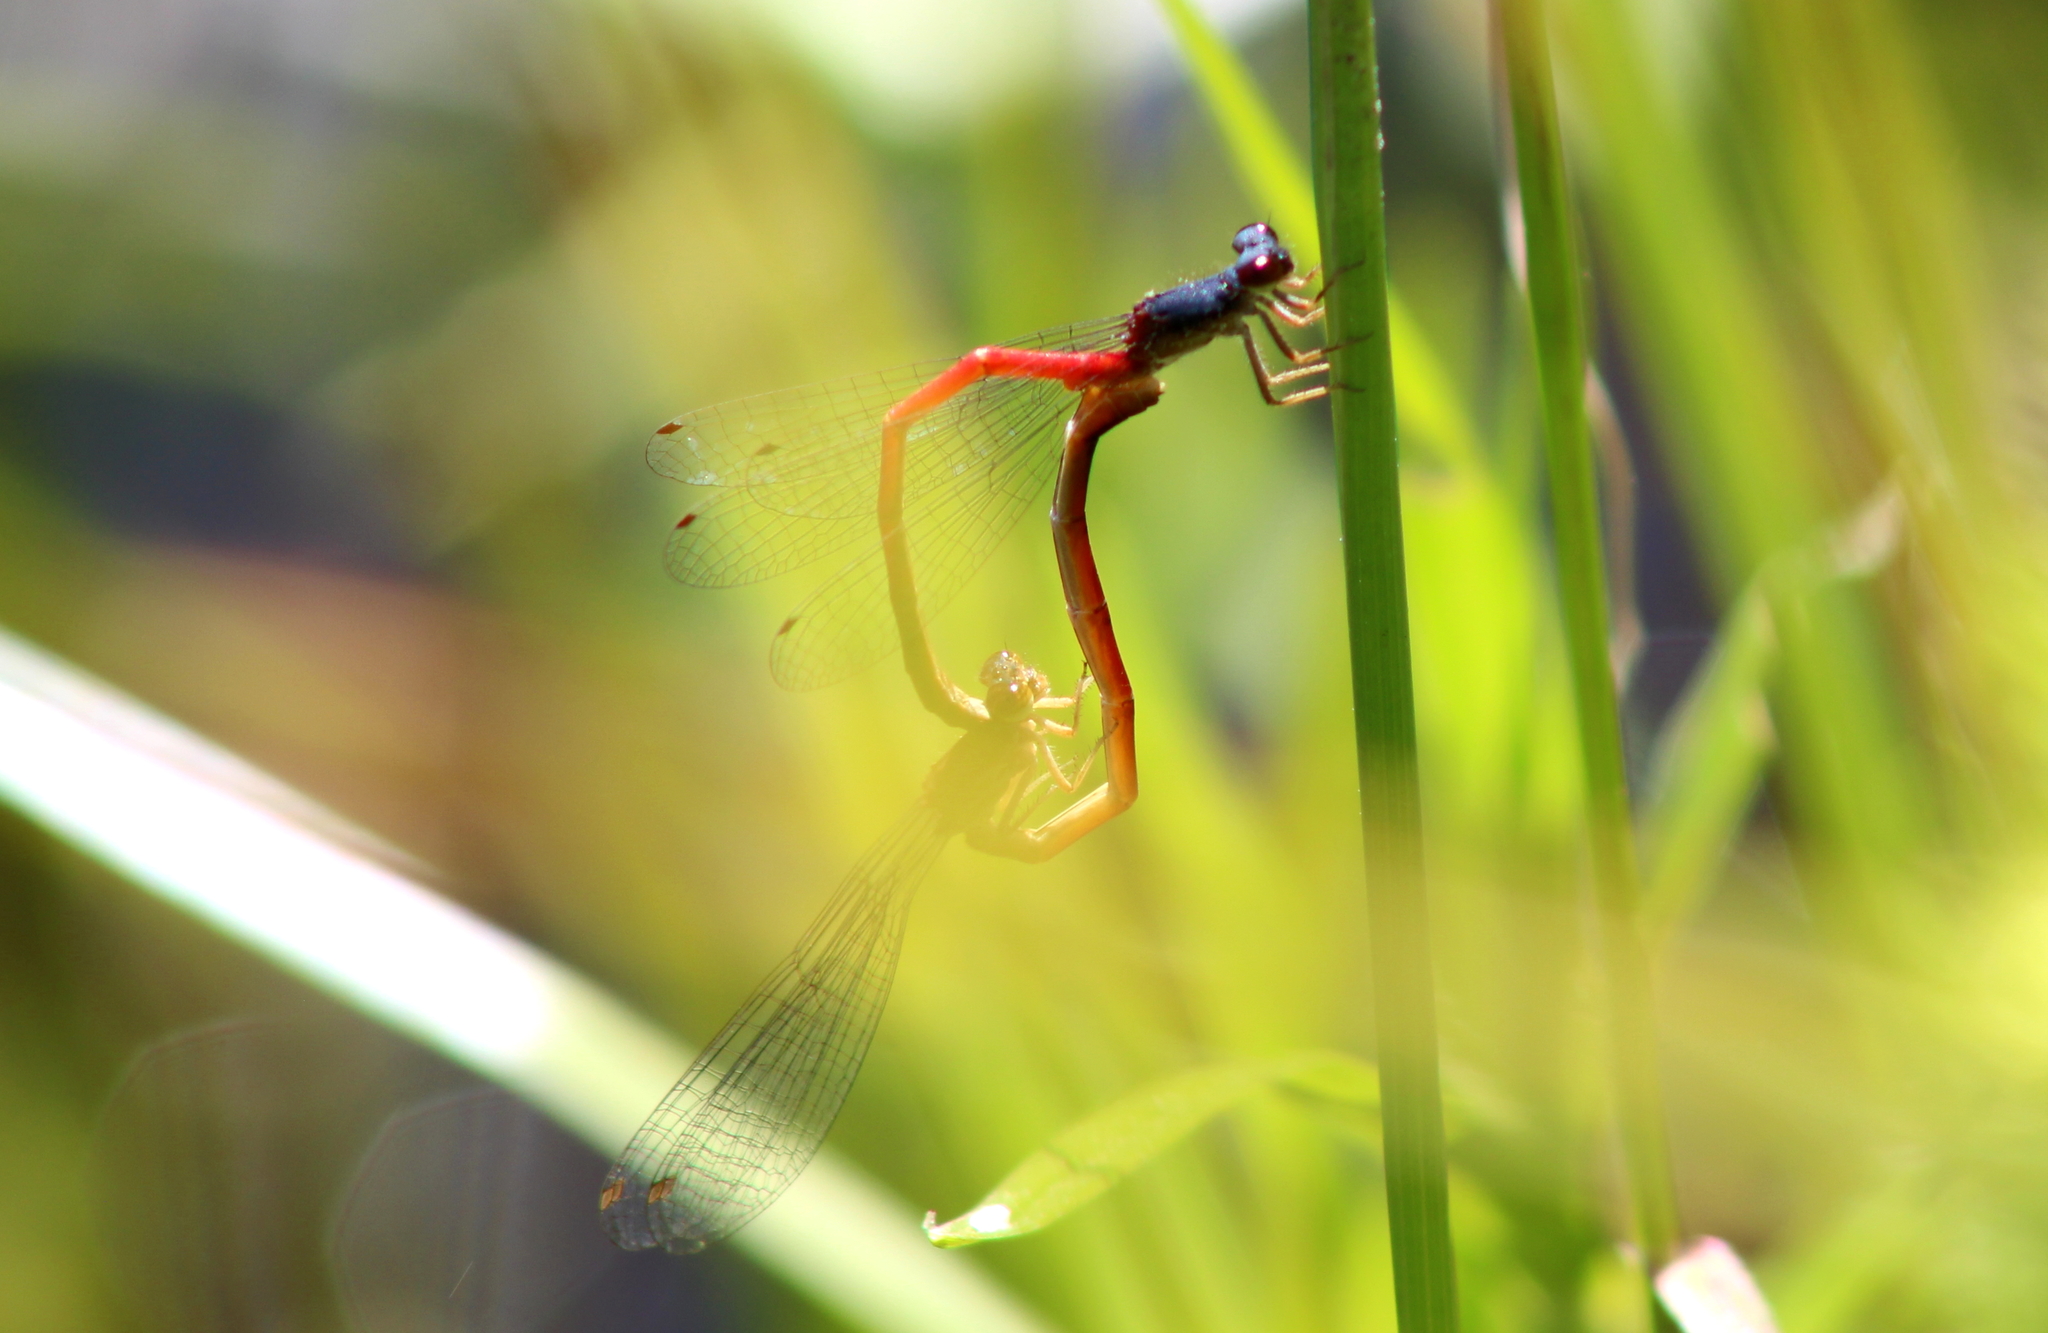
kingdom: Animalia
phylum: Arthropoda
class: Insecta
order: Odonata
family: Coenagrionidae
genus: Amphiagrion
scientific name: Amphiagrion saucium
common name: Eastern red damsel
